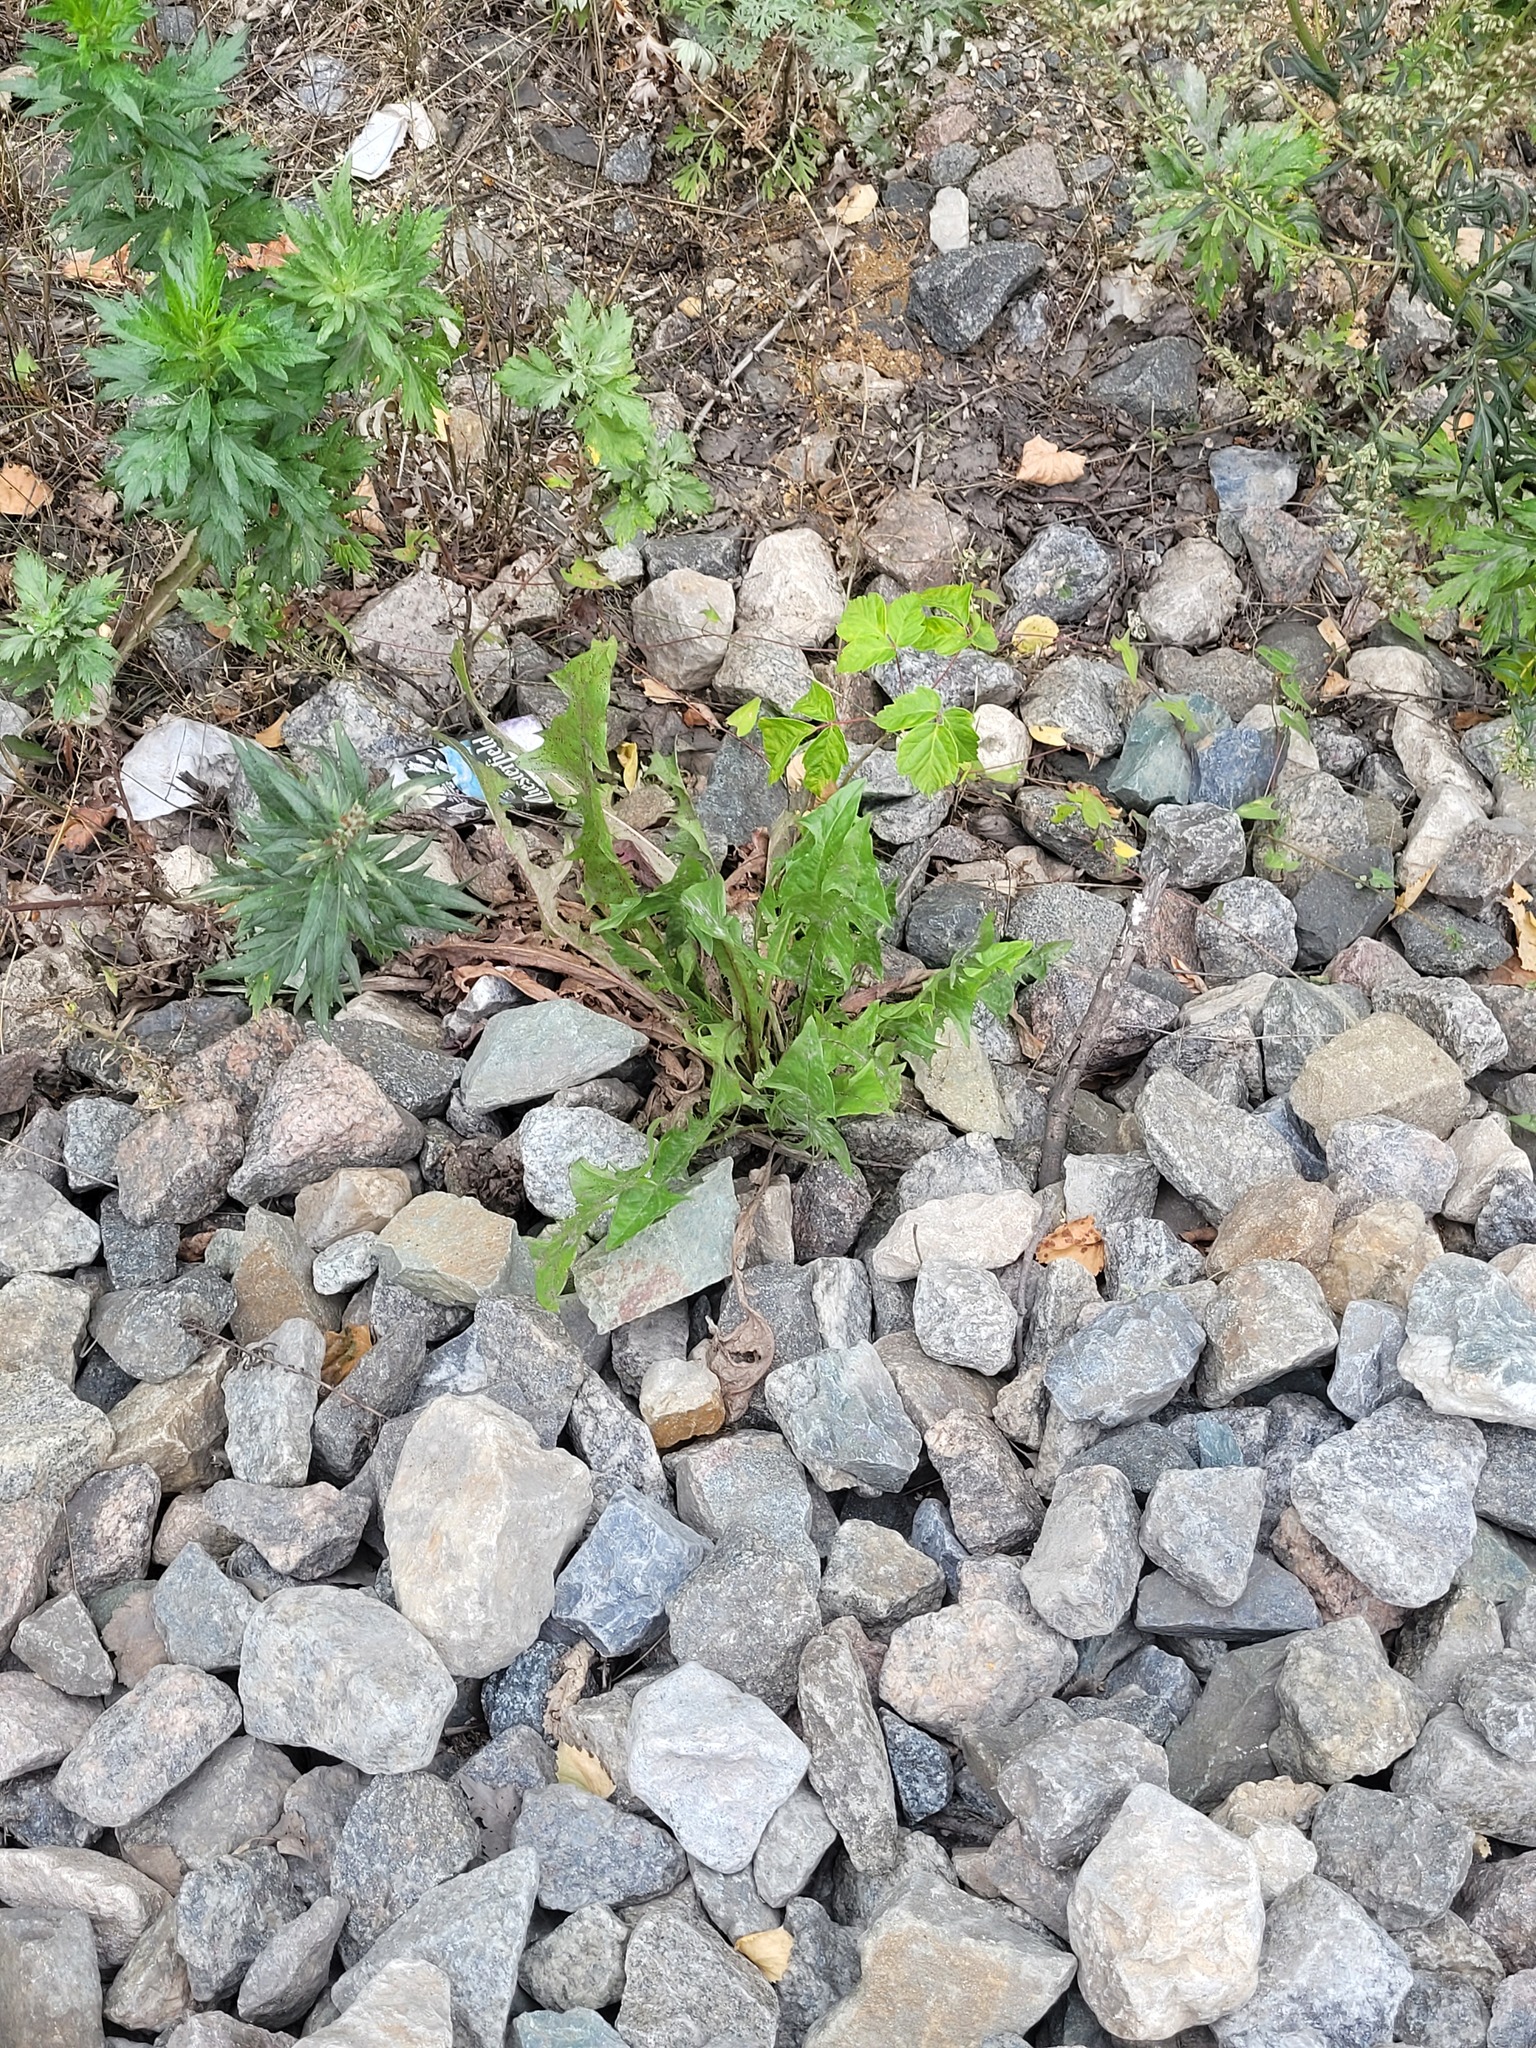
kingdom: Plantae
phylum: Tracheophyta
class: Magnoliopsida
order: Asterales
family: Asteraceae
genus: Taraxacum
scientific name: Taraxacum officinale
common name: Common dandelion
